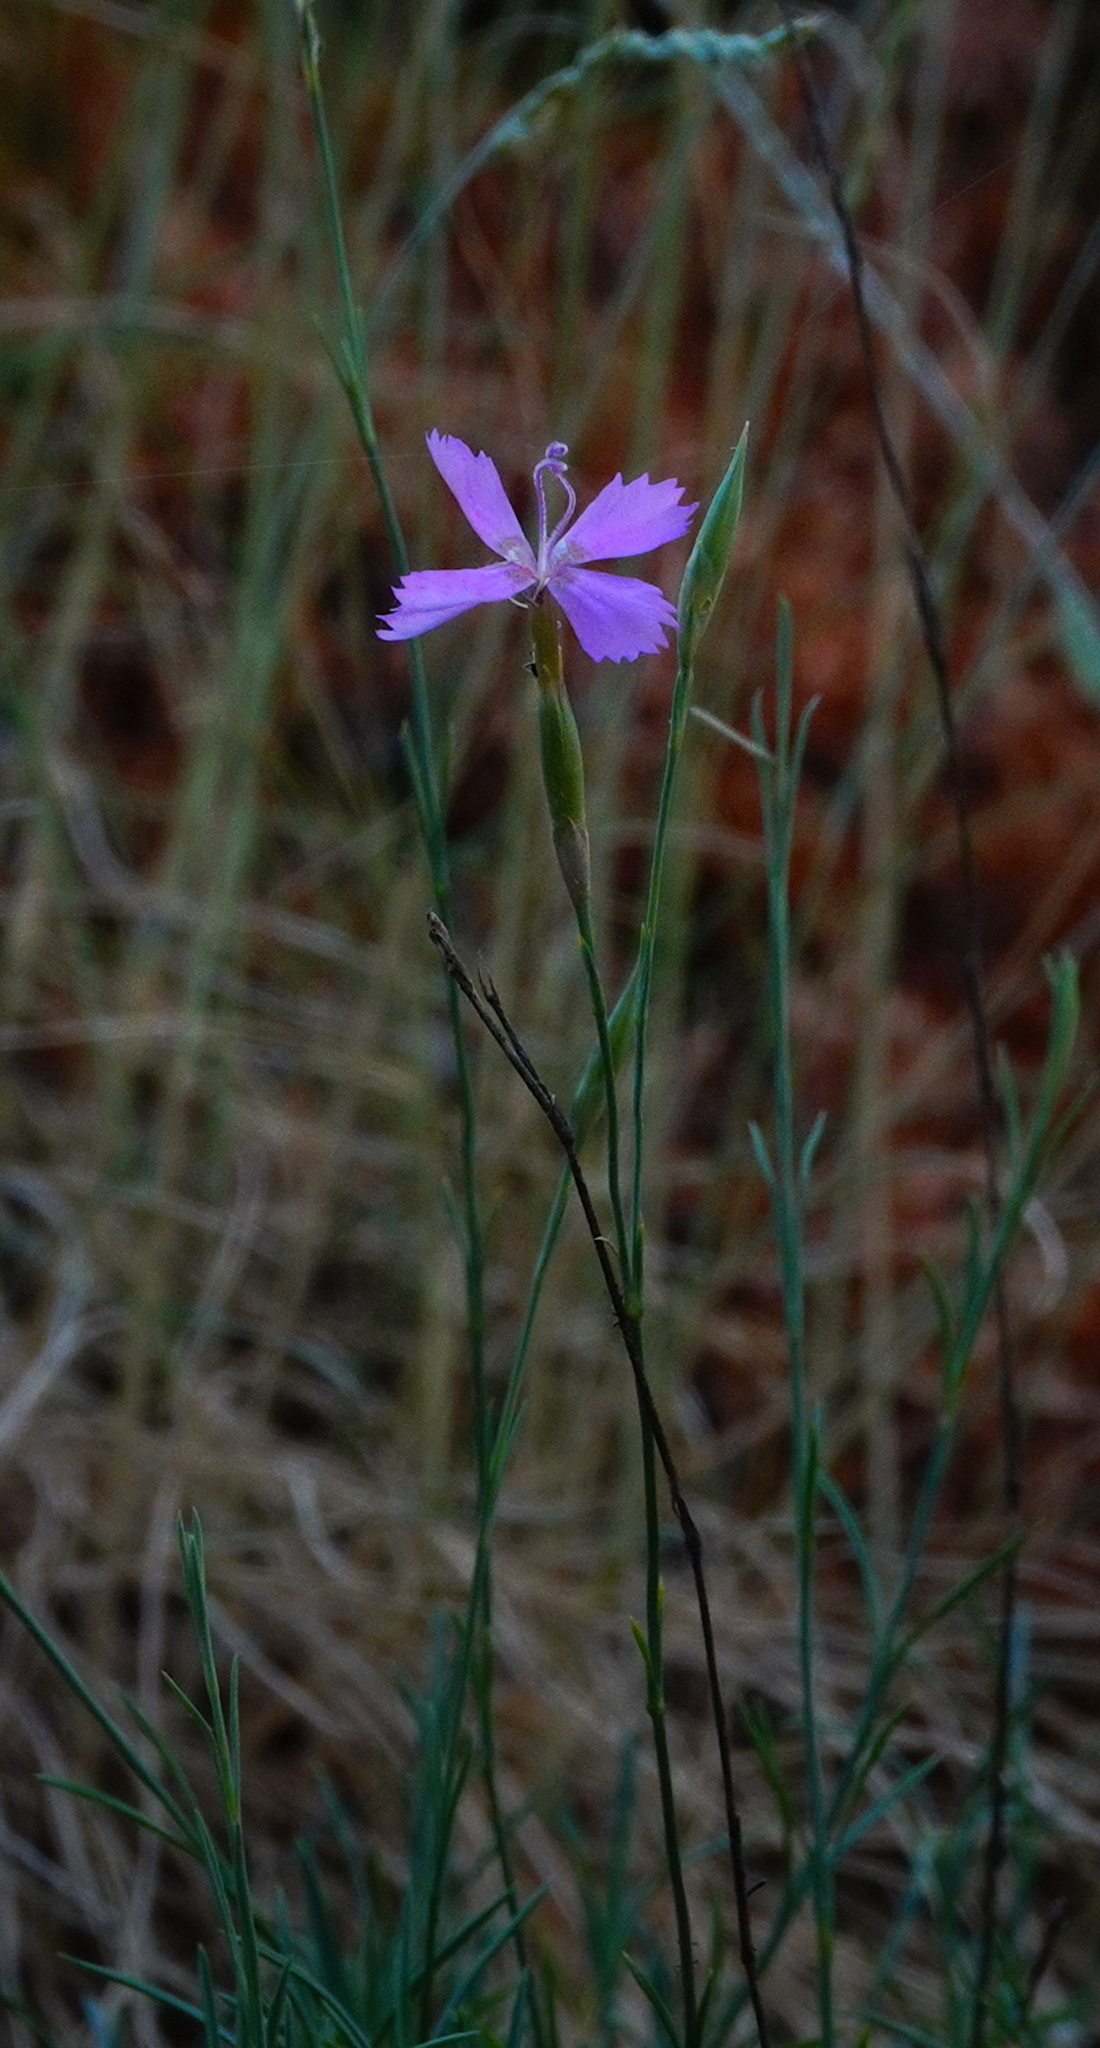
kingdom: Plantae
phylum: Tracheophyta
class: Magnoliopsida
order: Caryophyllales
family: Caryophyllaceae
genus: Dianthus
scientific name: Dianthus lusitanus
